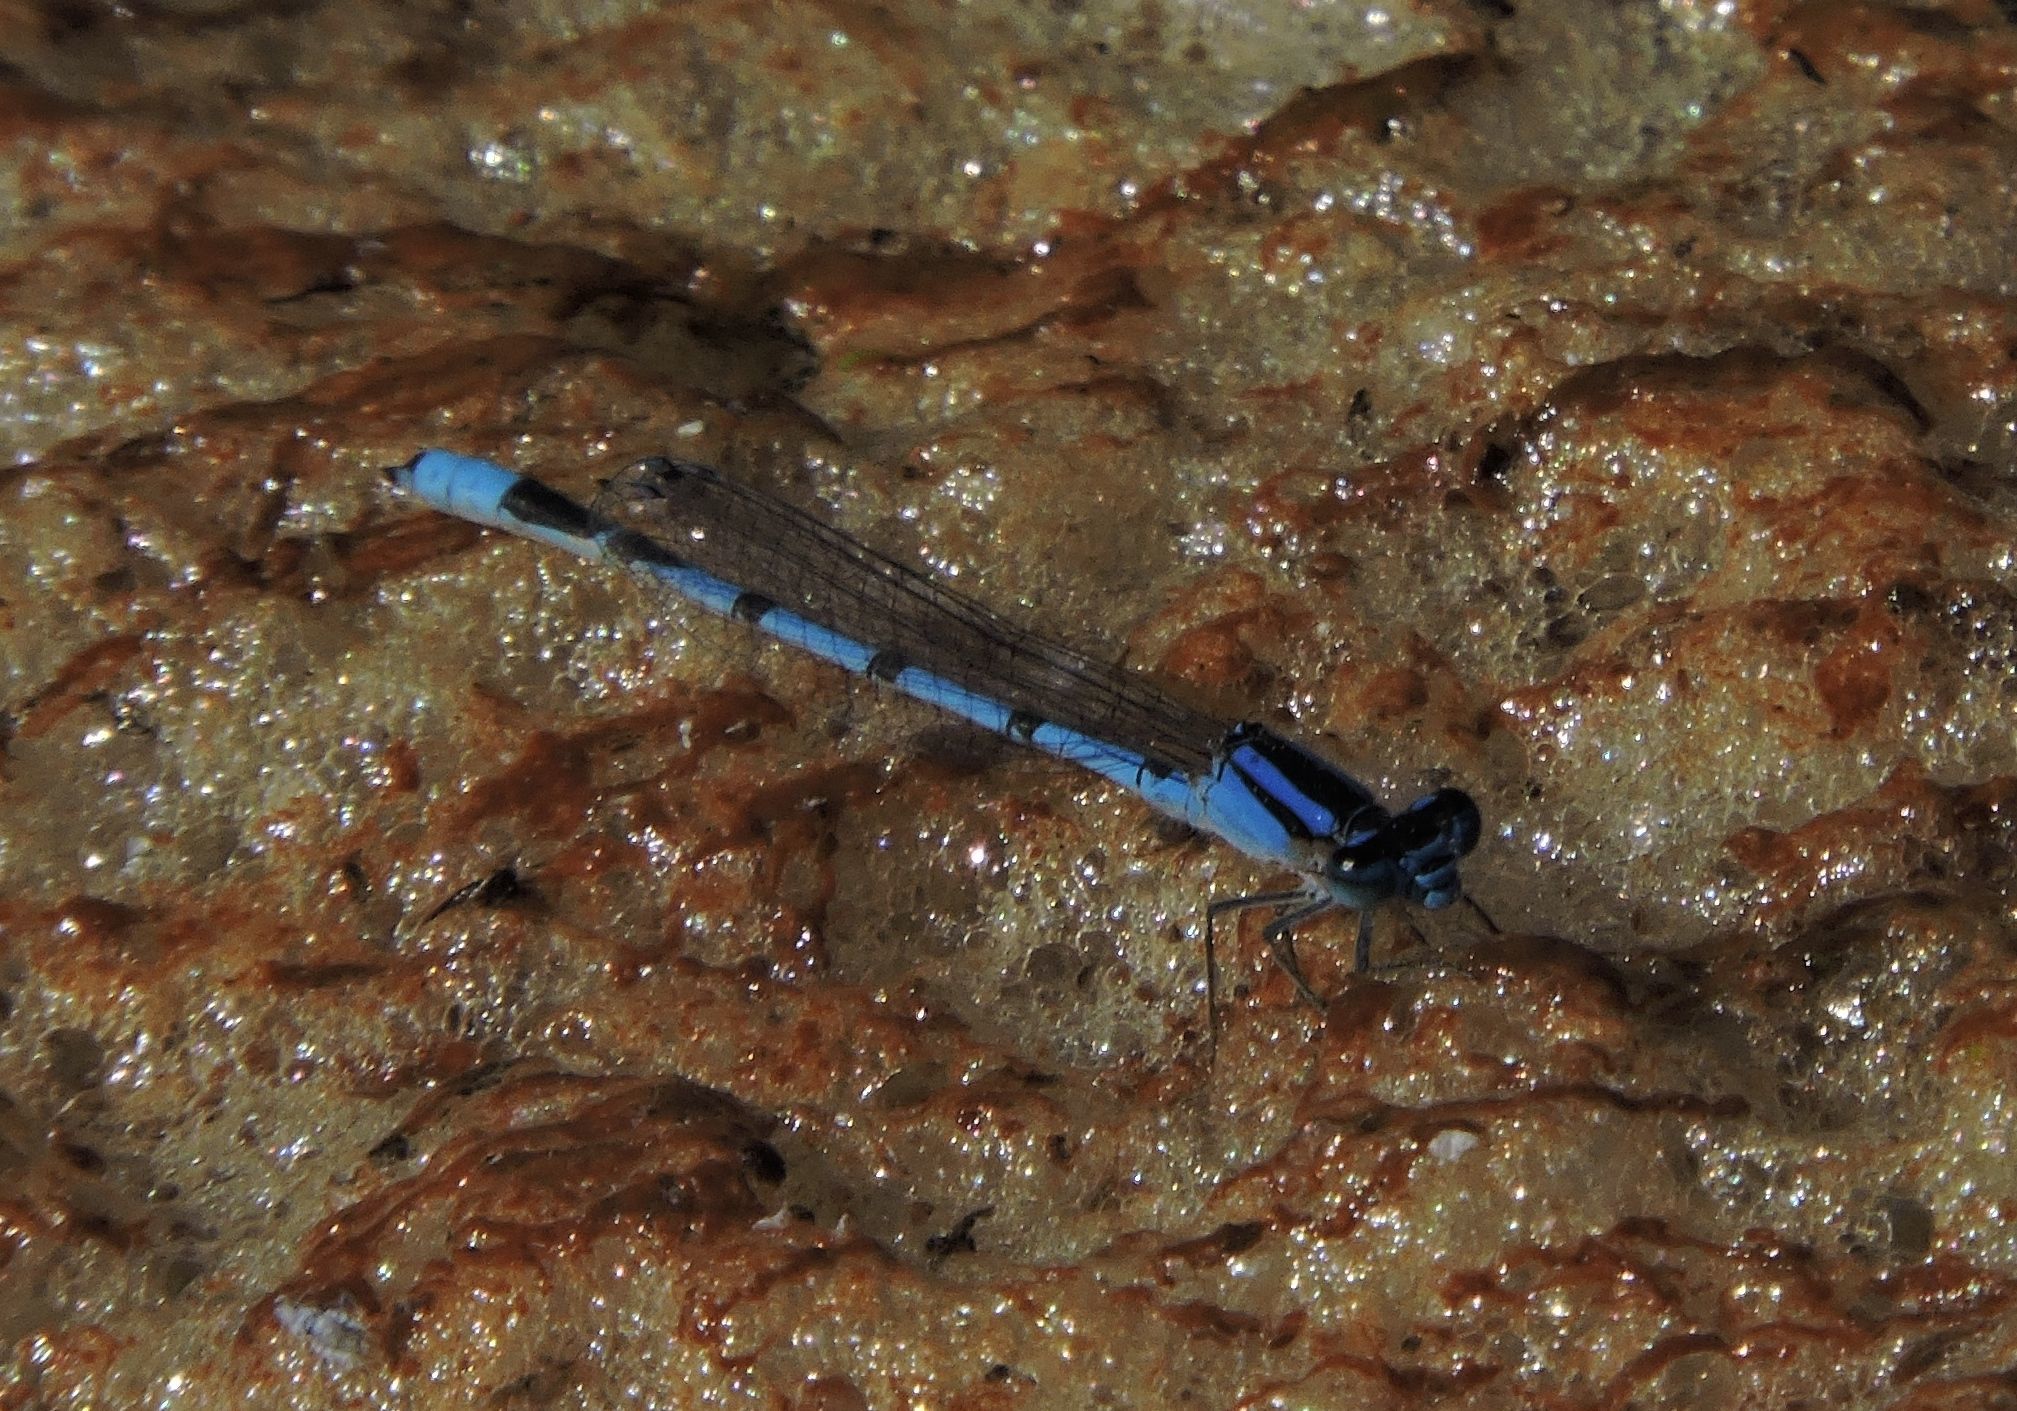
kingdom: Animalia
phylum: Arthropoda
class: Insecta
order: Odonata
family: Coenagrionidae
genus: Enallagma
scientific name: Enallagma civile
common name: Damselfly
